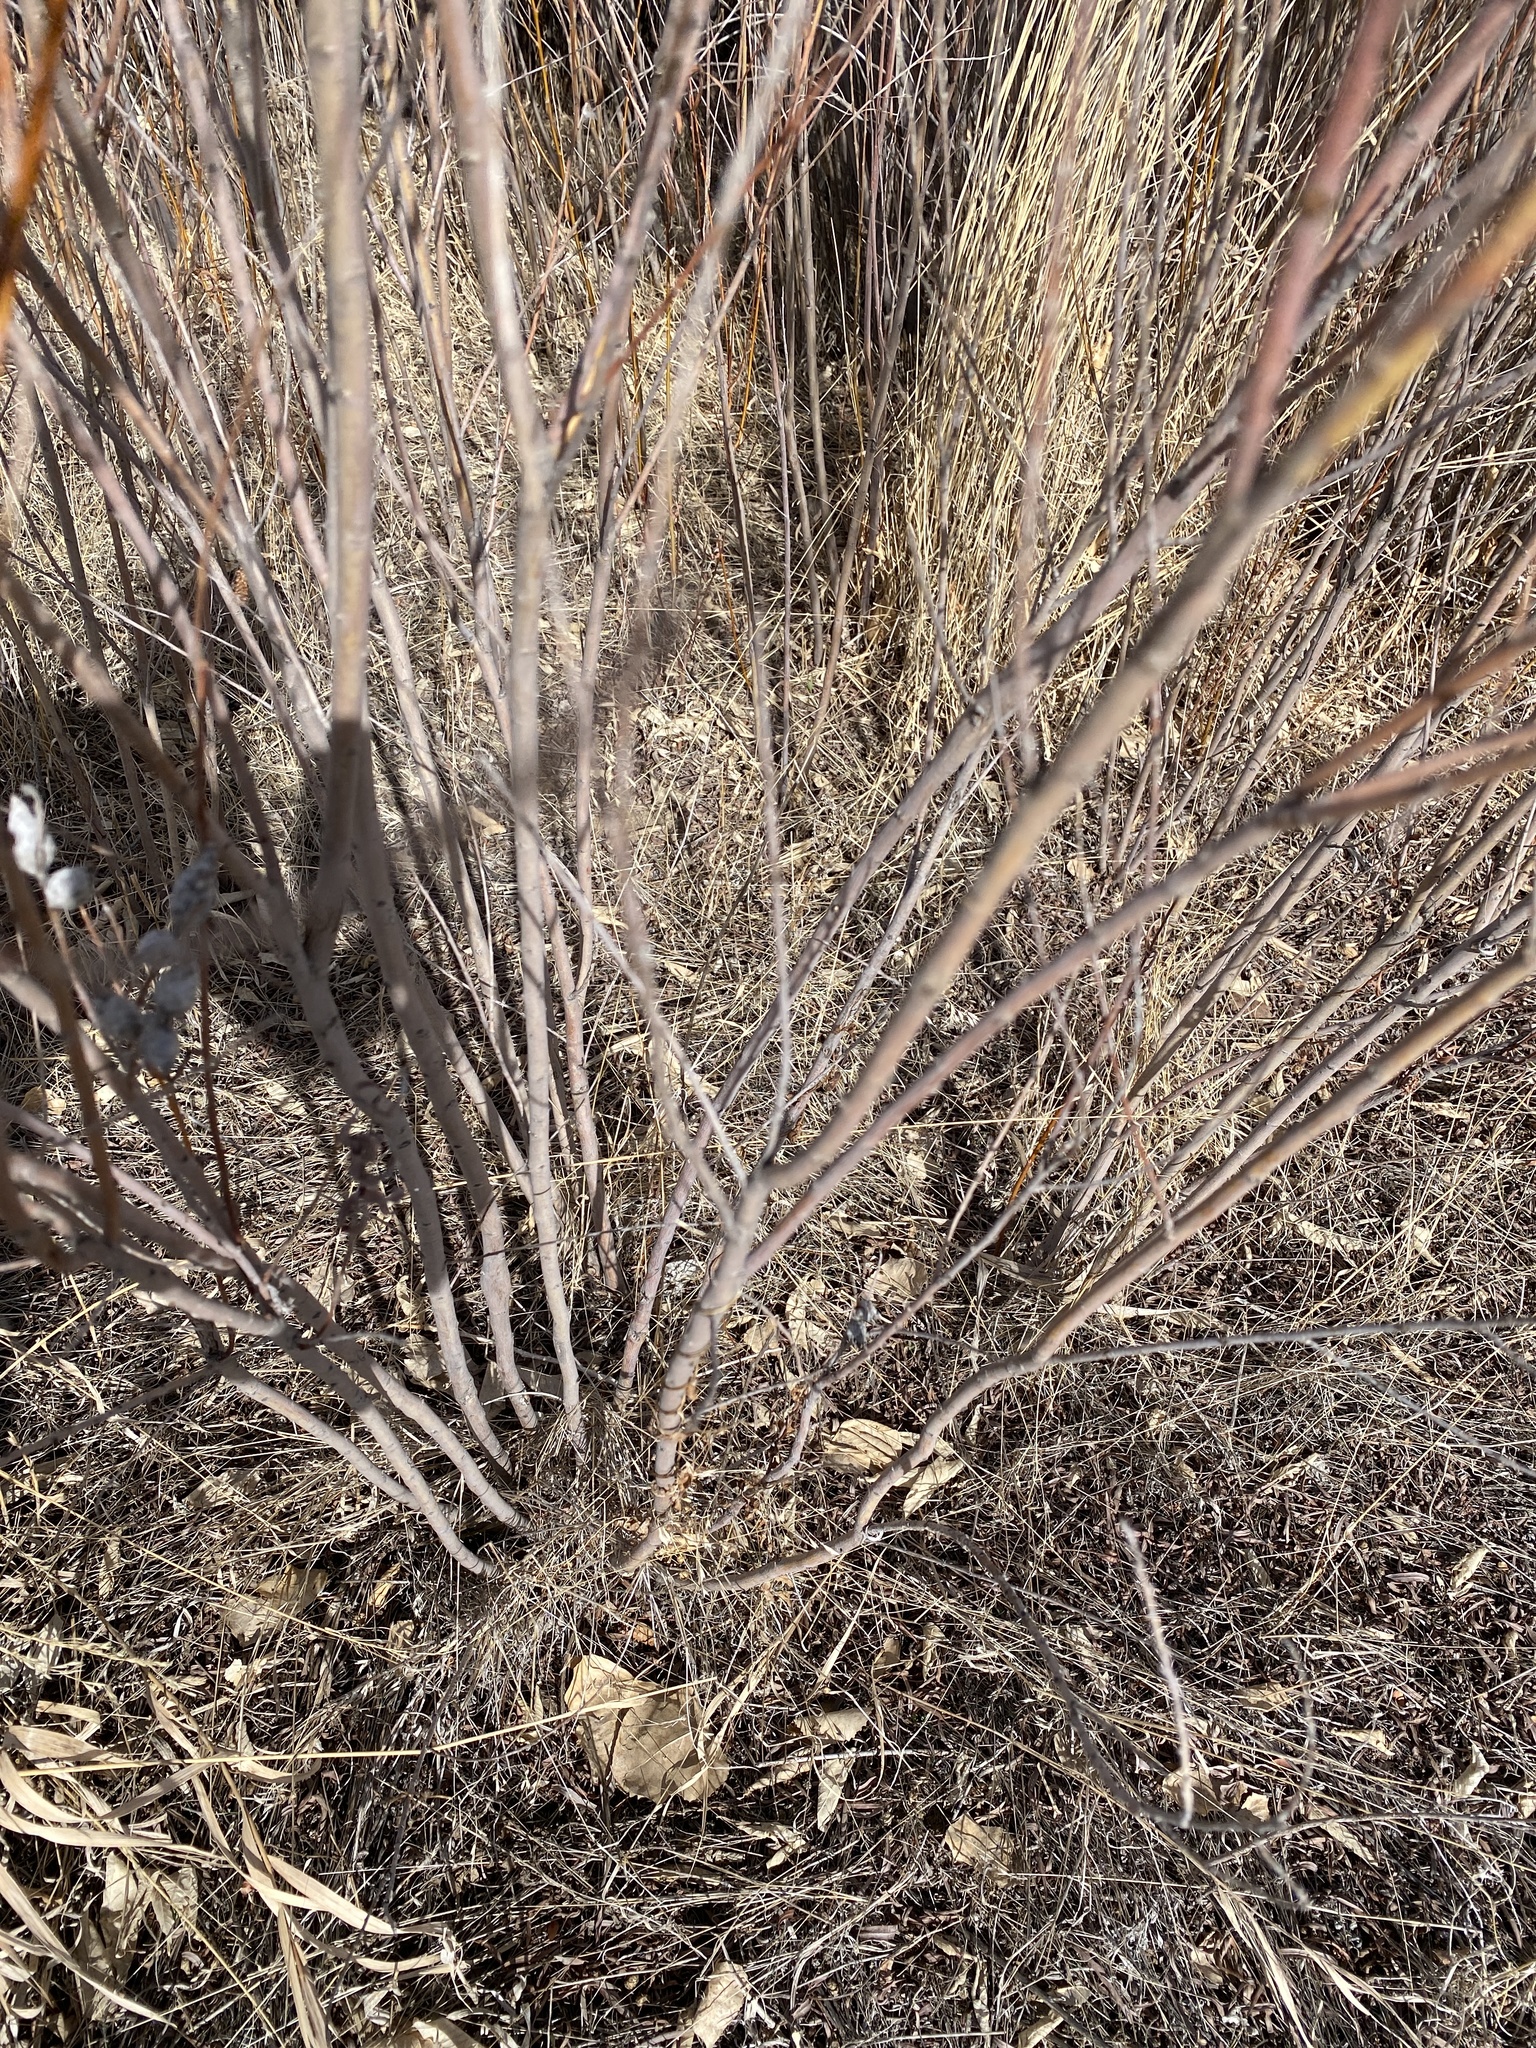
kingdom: Animalia
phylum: Arthropoda
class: Insecta
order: Diptera
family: Cecidomyiidae
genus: Rabdophaga
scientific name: Rabdophaga strobiloides
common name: Willow pinecone gall midge
